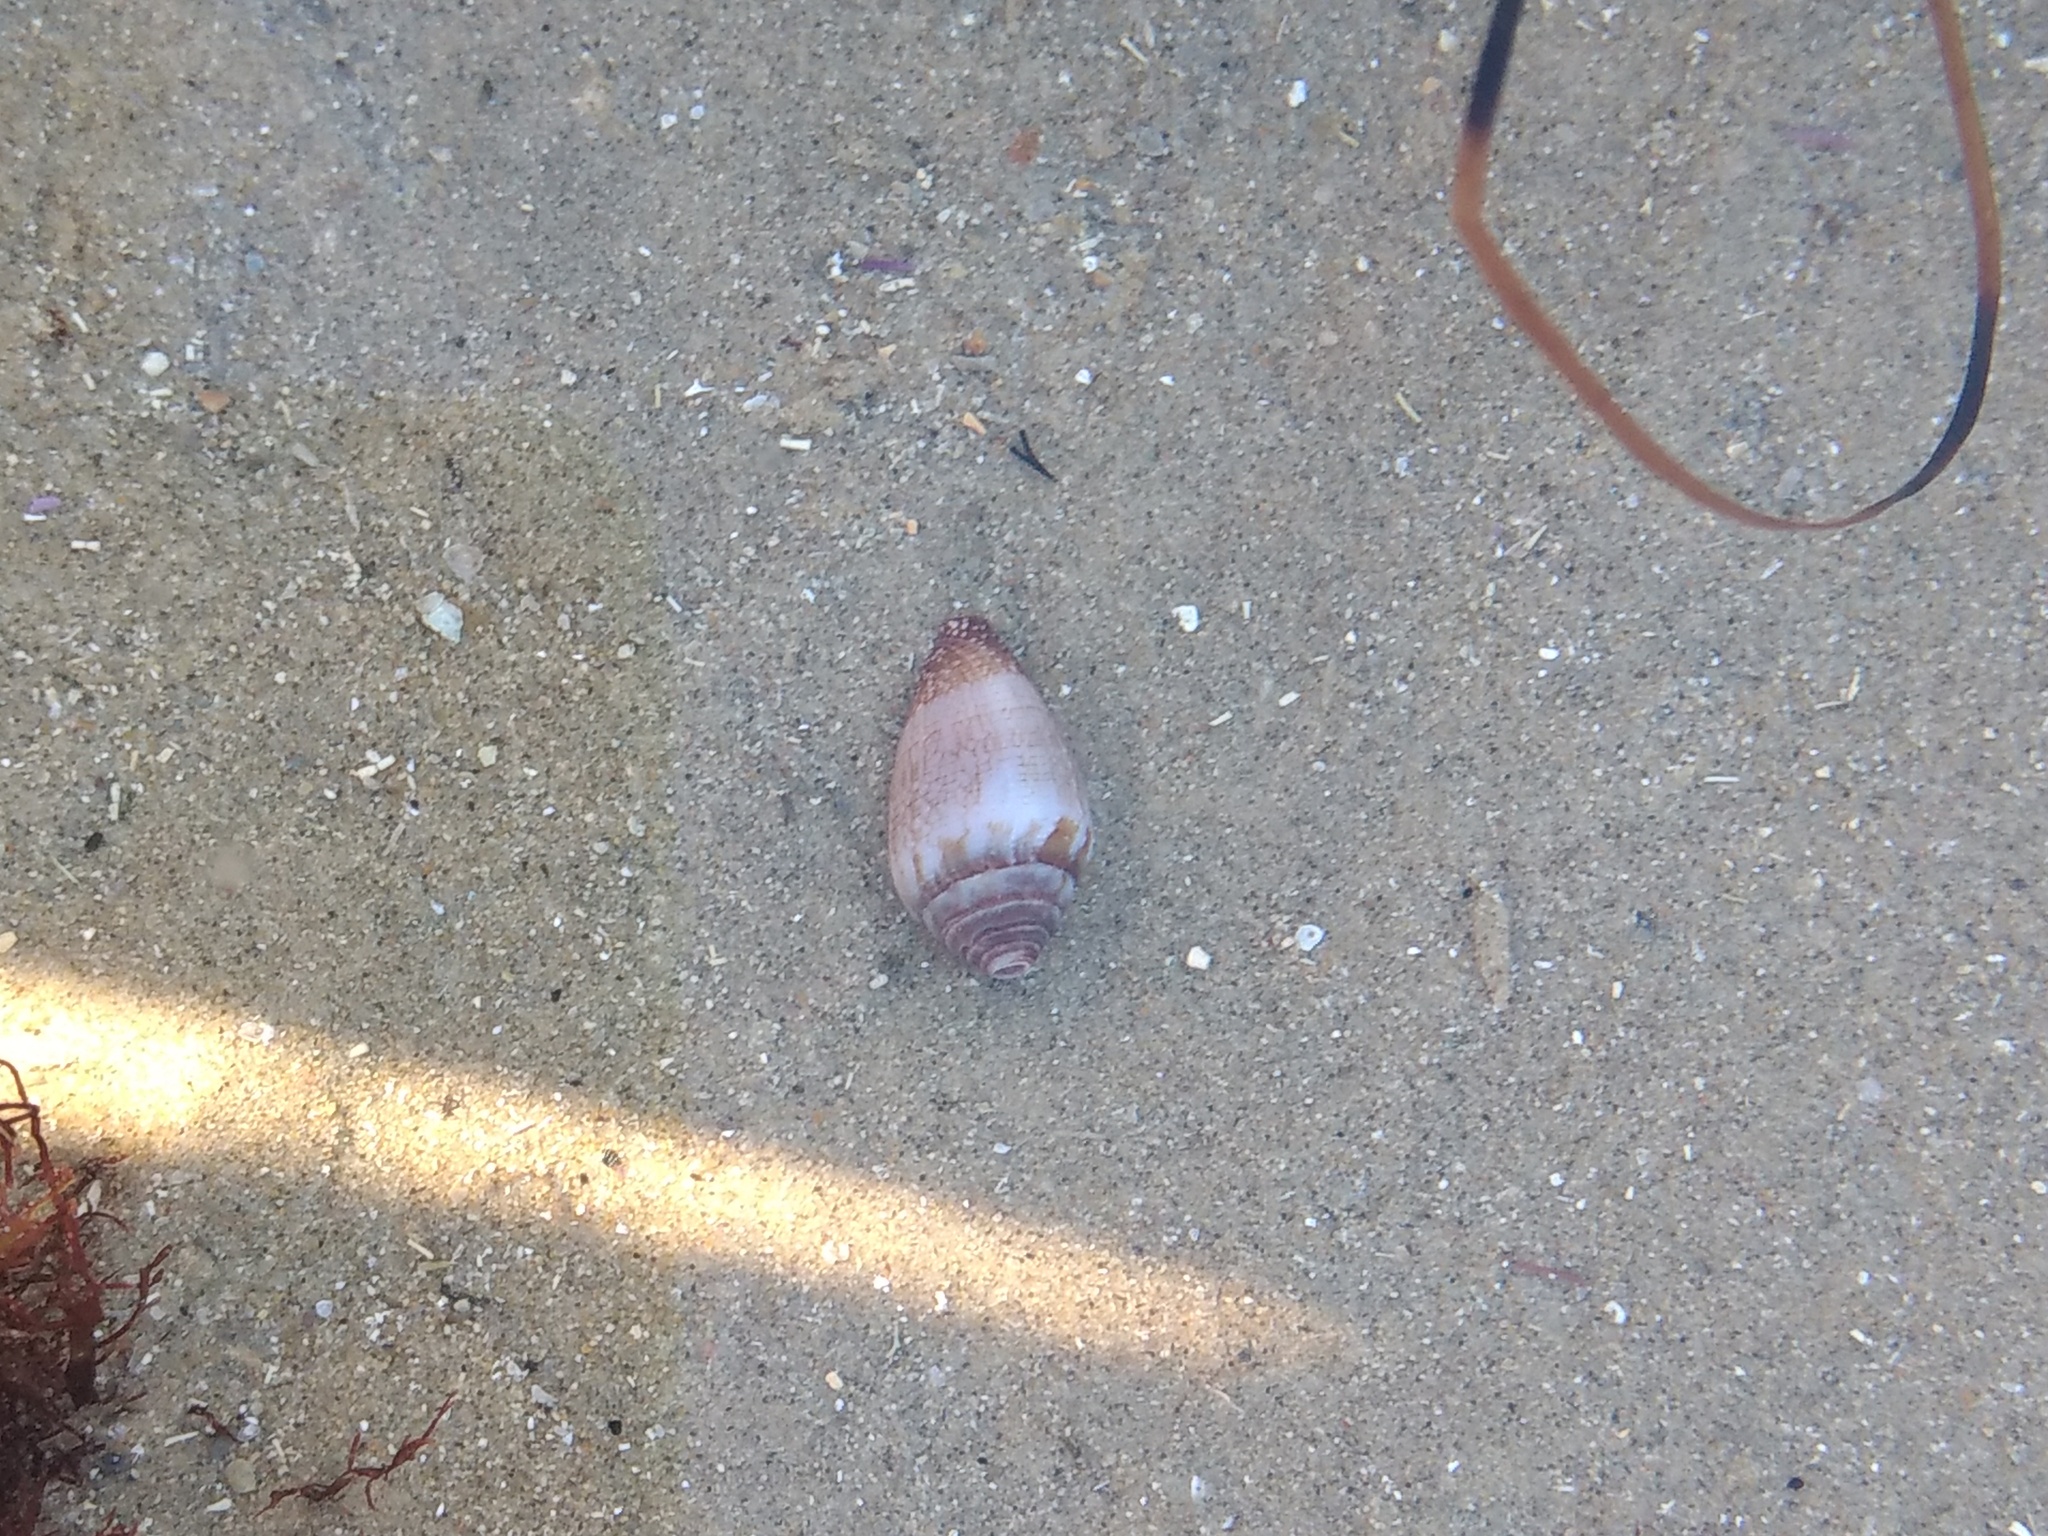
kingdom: Animalia
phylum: Mollusca
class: Gastropoda
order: Neogastropoda
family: Conidae
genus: Californiconus
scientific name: Californiconus californicus
